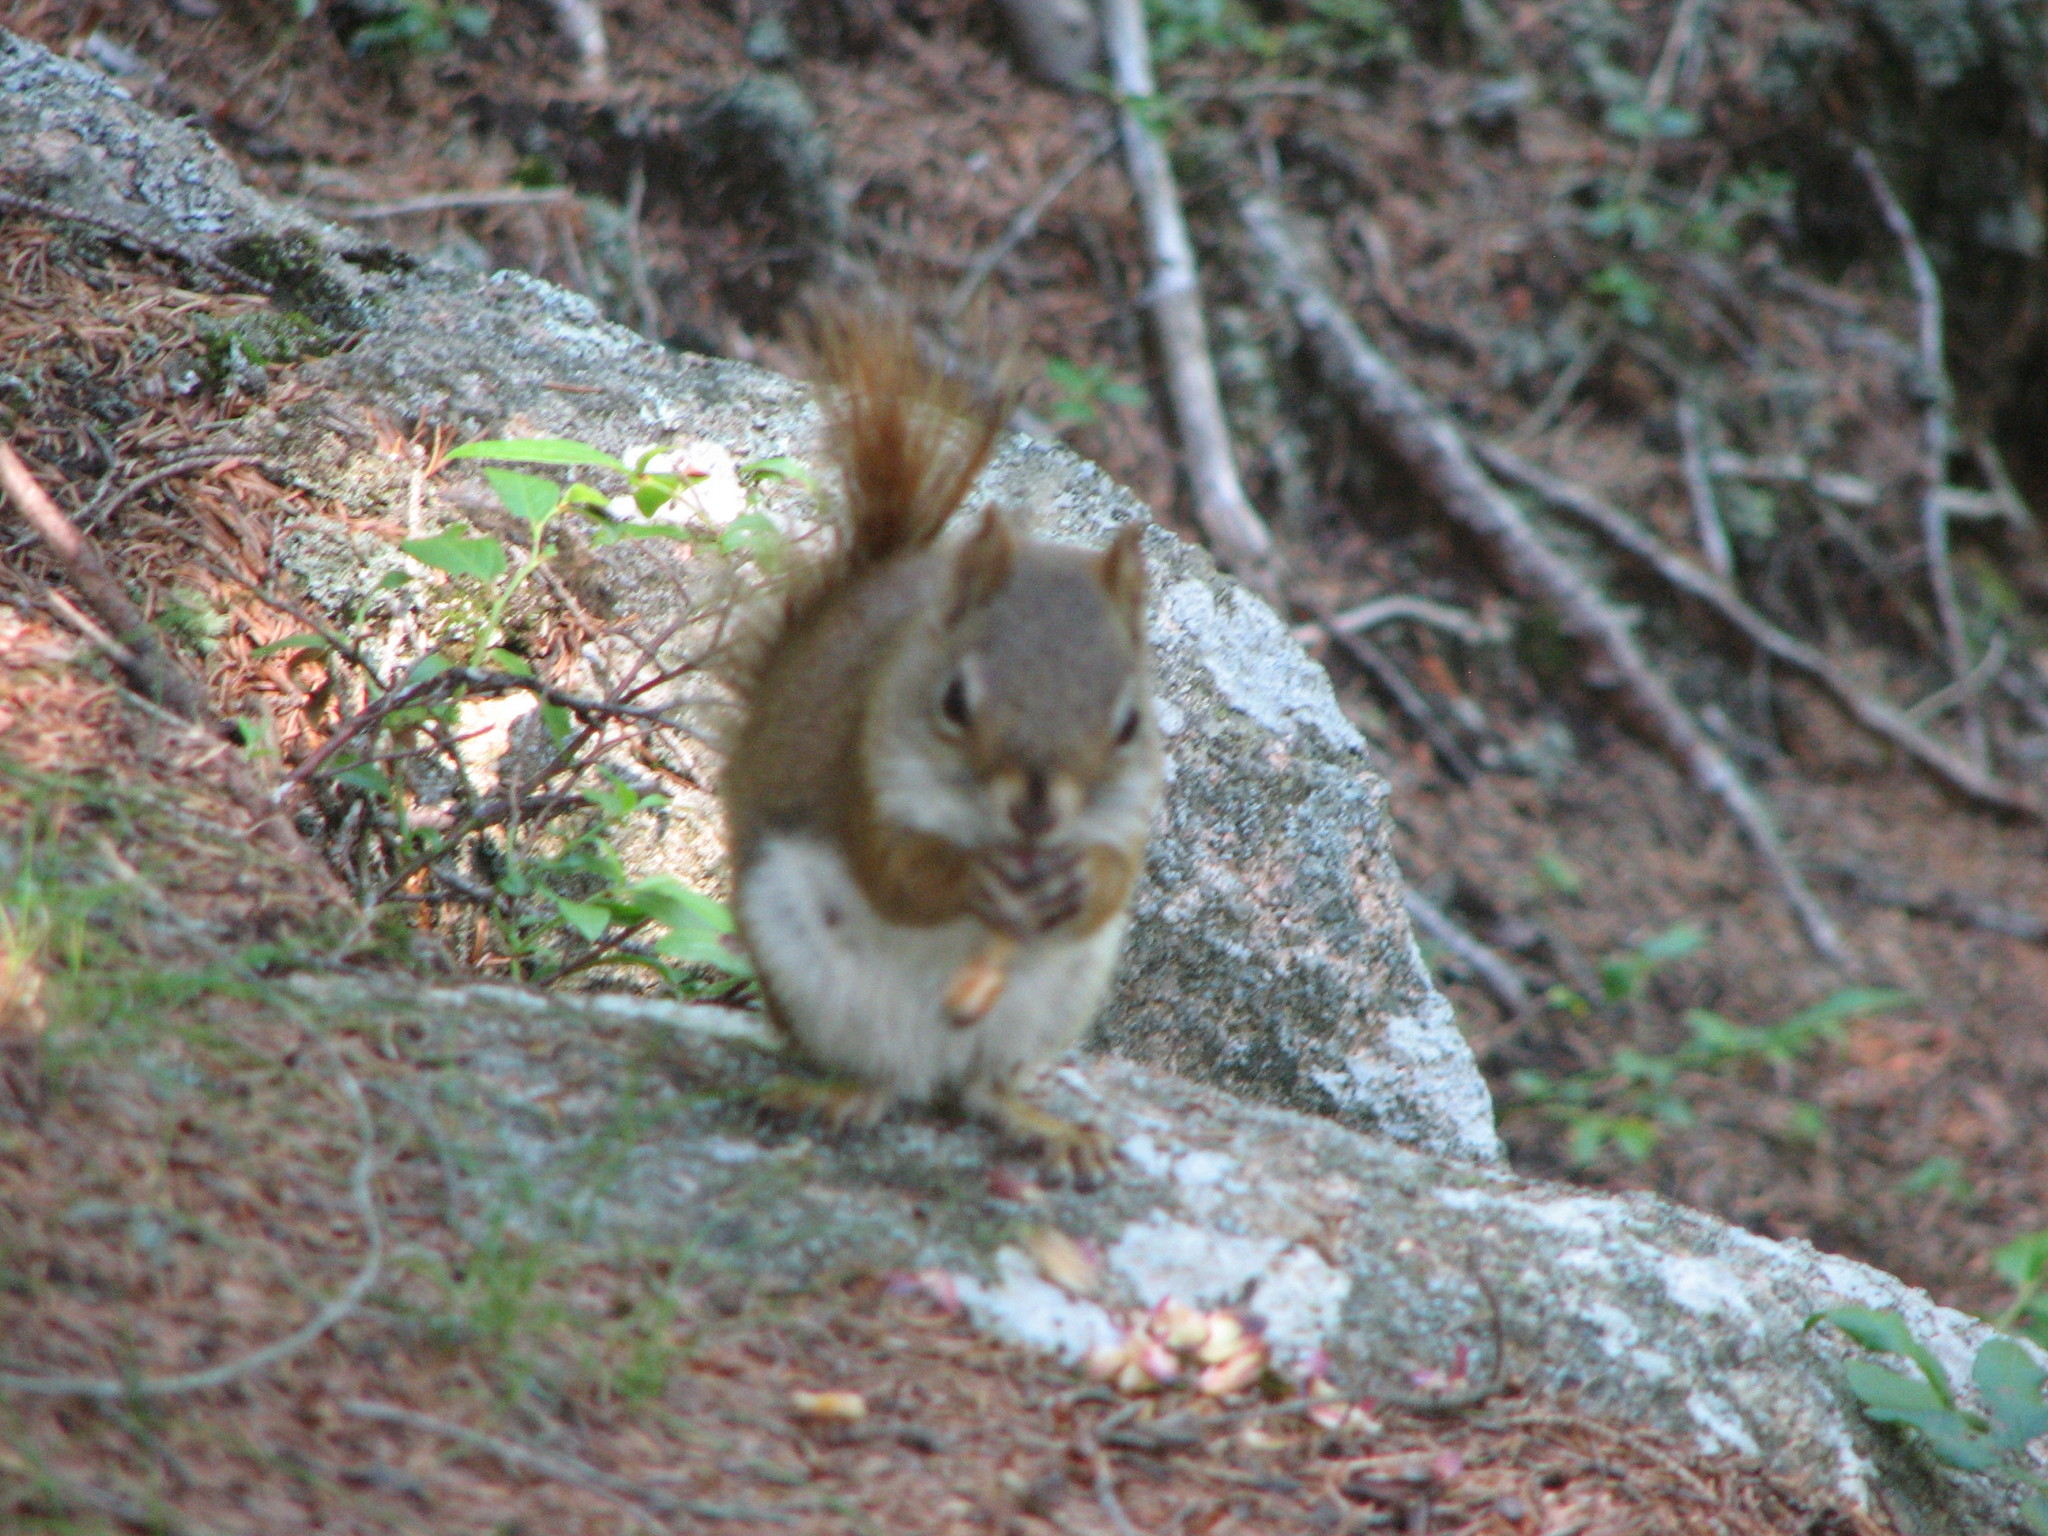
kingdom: Animalia
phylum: Chordata
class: Mammalia
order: Rodentia
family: Sciuridae
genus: Tamiasciurus
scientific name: Tamiasciurus hudsonicus
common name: Red squirrel
